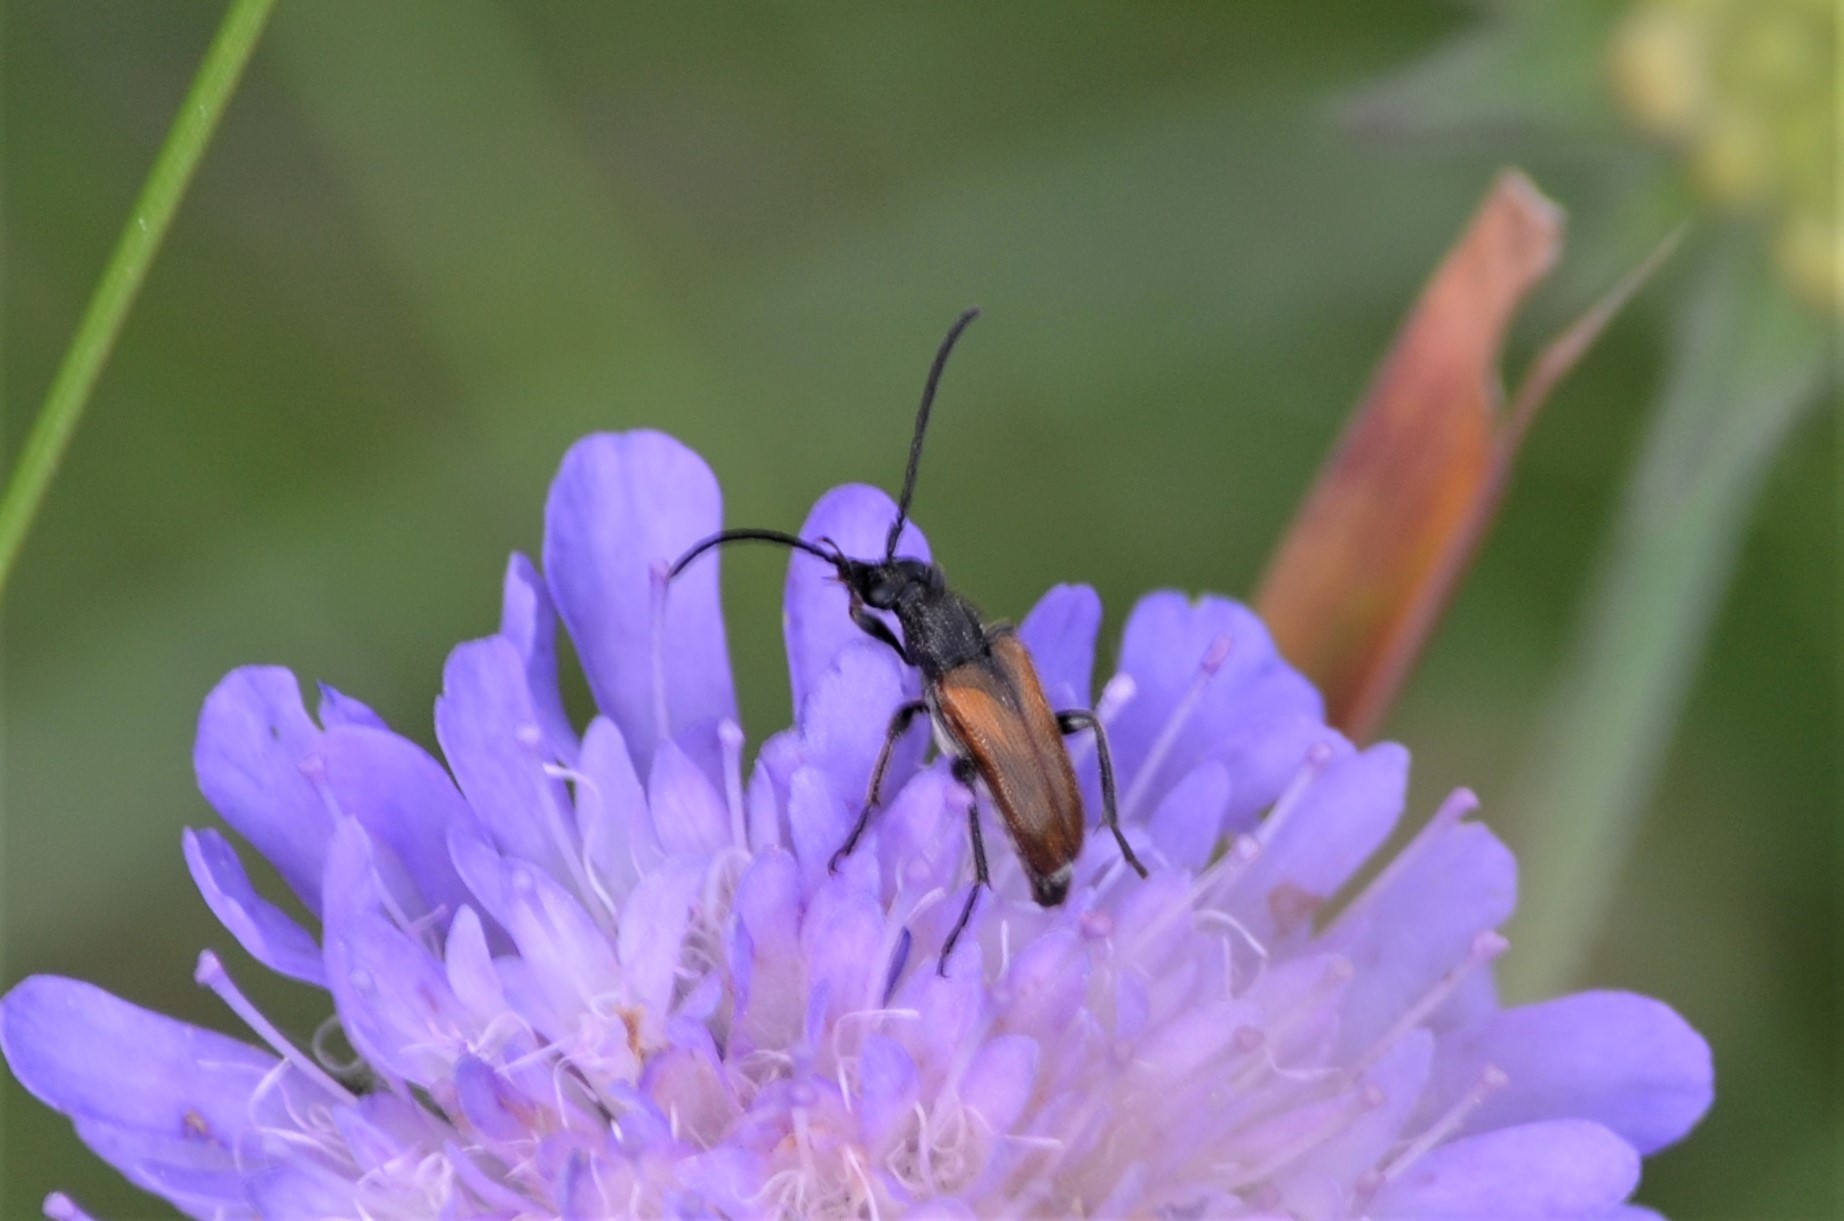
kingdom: Animalia
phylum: Arthropoda
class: Insecta
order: Coleoptera
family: Cerambycidae
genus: Pseudovadonia
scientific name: Pseudovadonia livida
